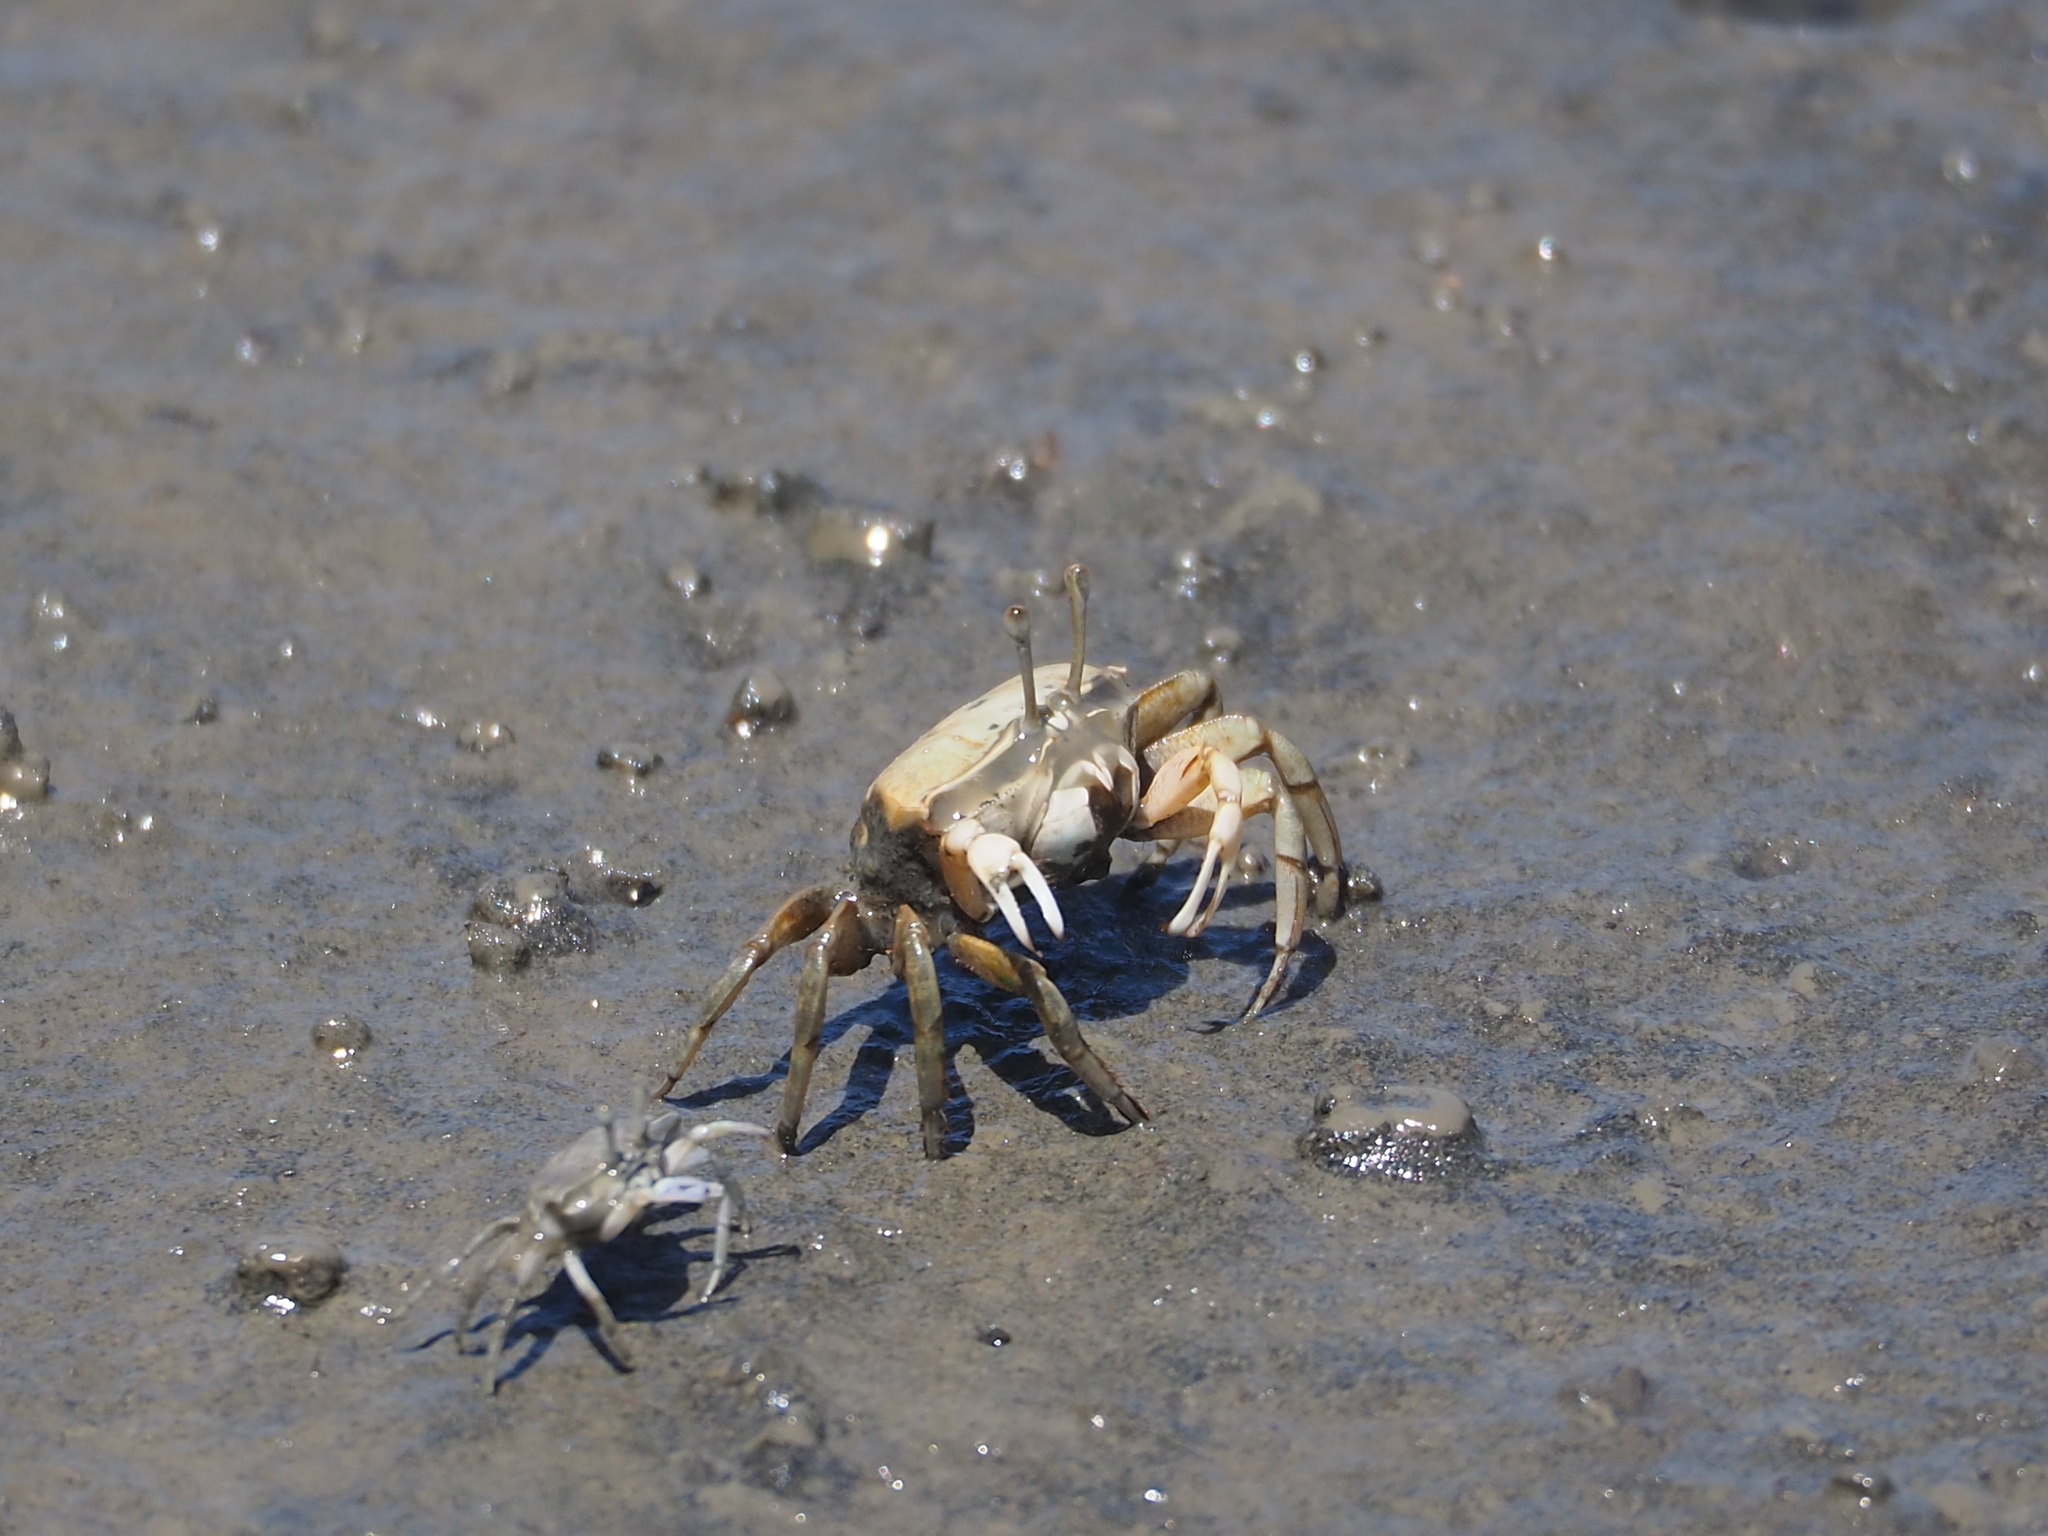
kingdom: Animalia
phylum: Arthropoda
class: Malacostraca
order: Decapoda
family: Ocypodidae
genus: Gelasimus
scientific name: Gelasimus borealis
